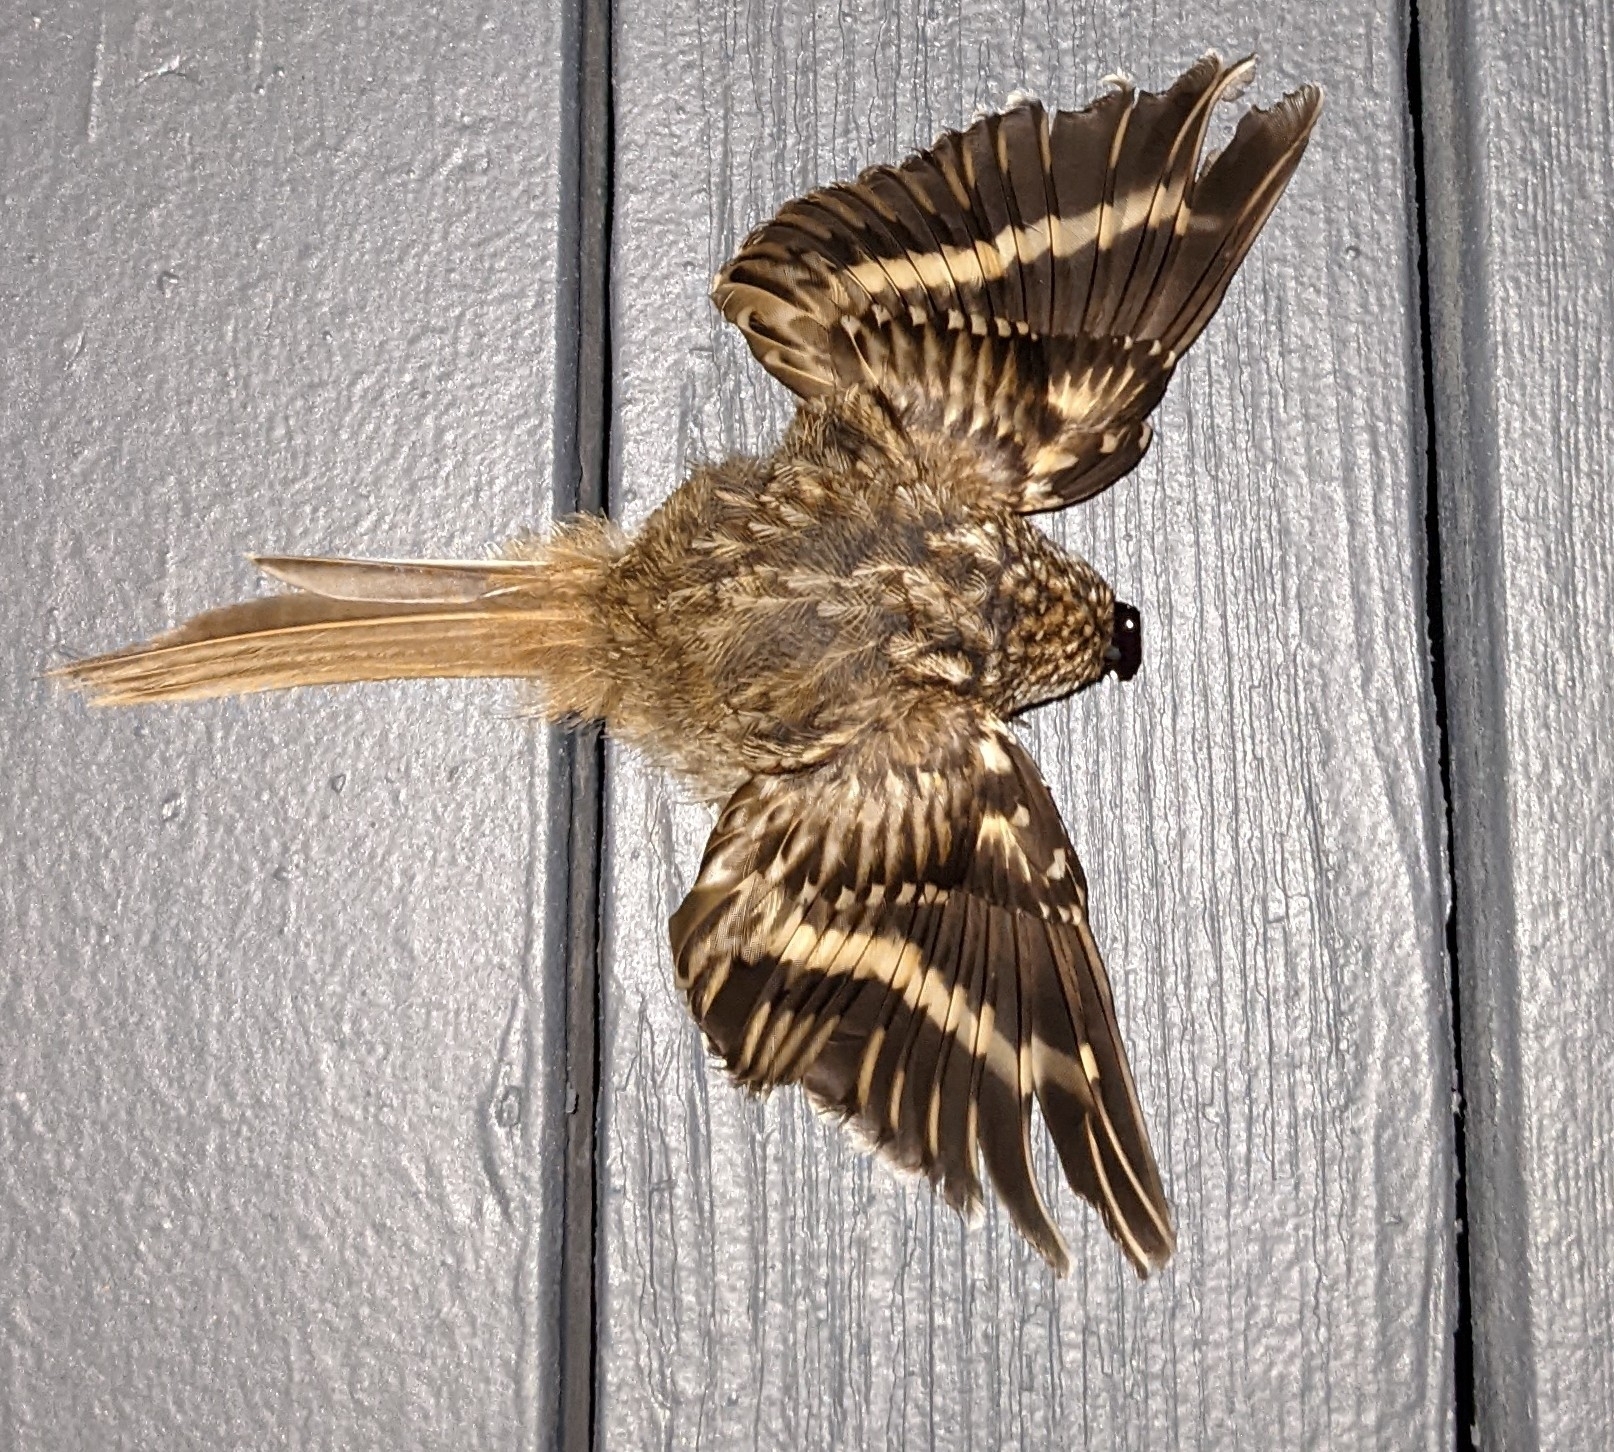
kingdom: Animalia
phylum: Chordata
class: Aves
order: Passeriformes
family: Certhiidae
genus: Certhia
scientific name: Certhia americana
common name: Brown creeper
